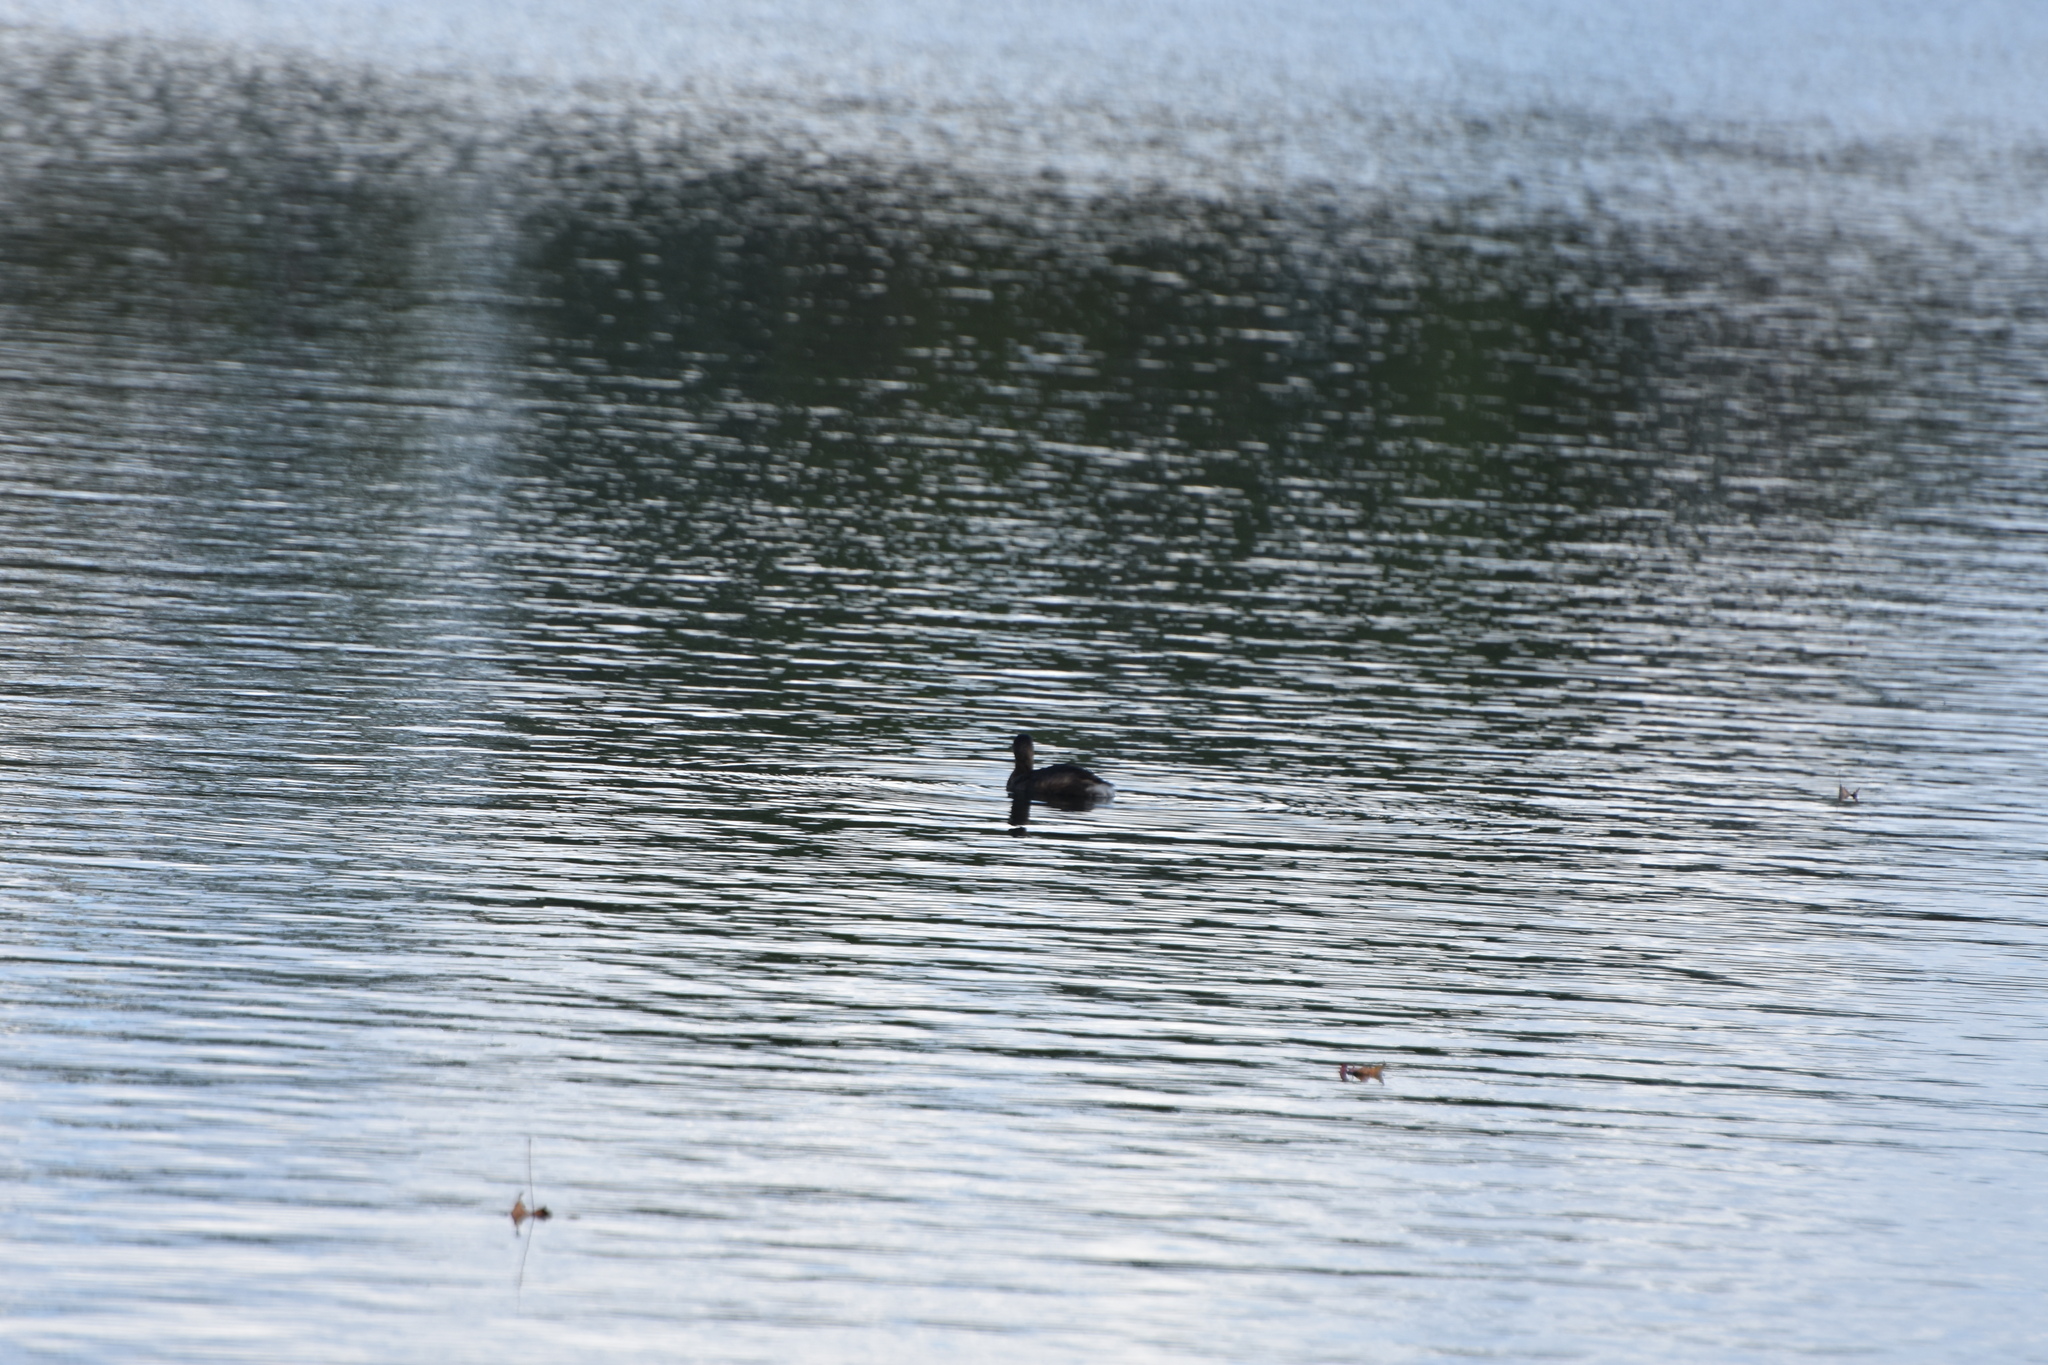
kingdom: Animalia
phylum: Chordata
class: Aves
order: Podicipediformes
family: Podicipedidae
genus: Podilymbus
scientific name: Podilymbus podiceps
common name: Pied-billed grebe
